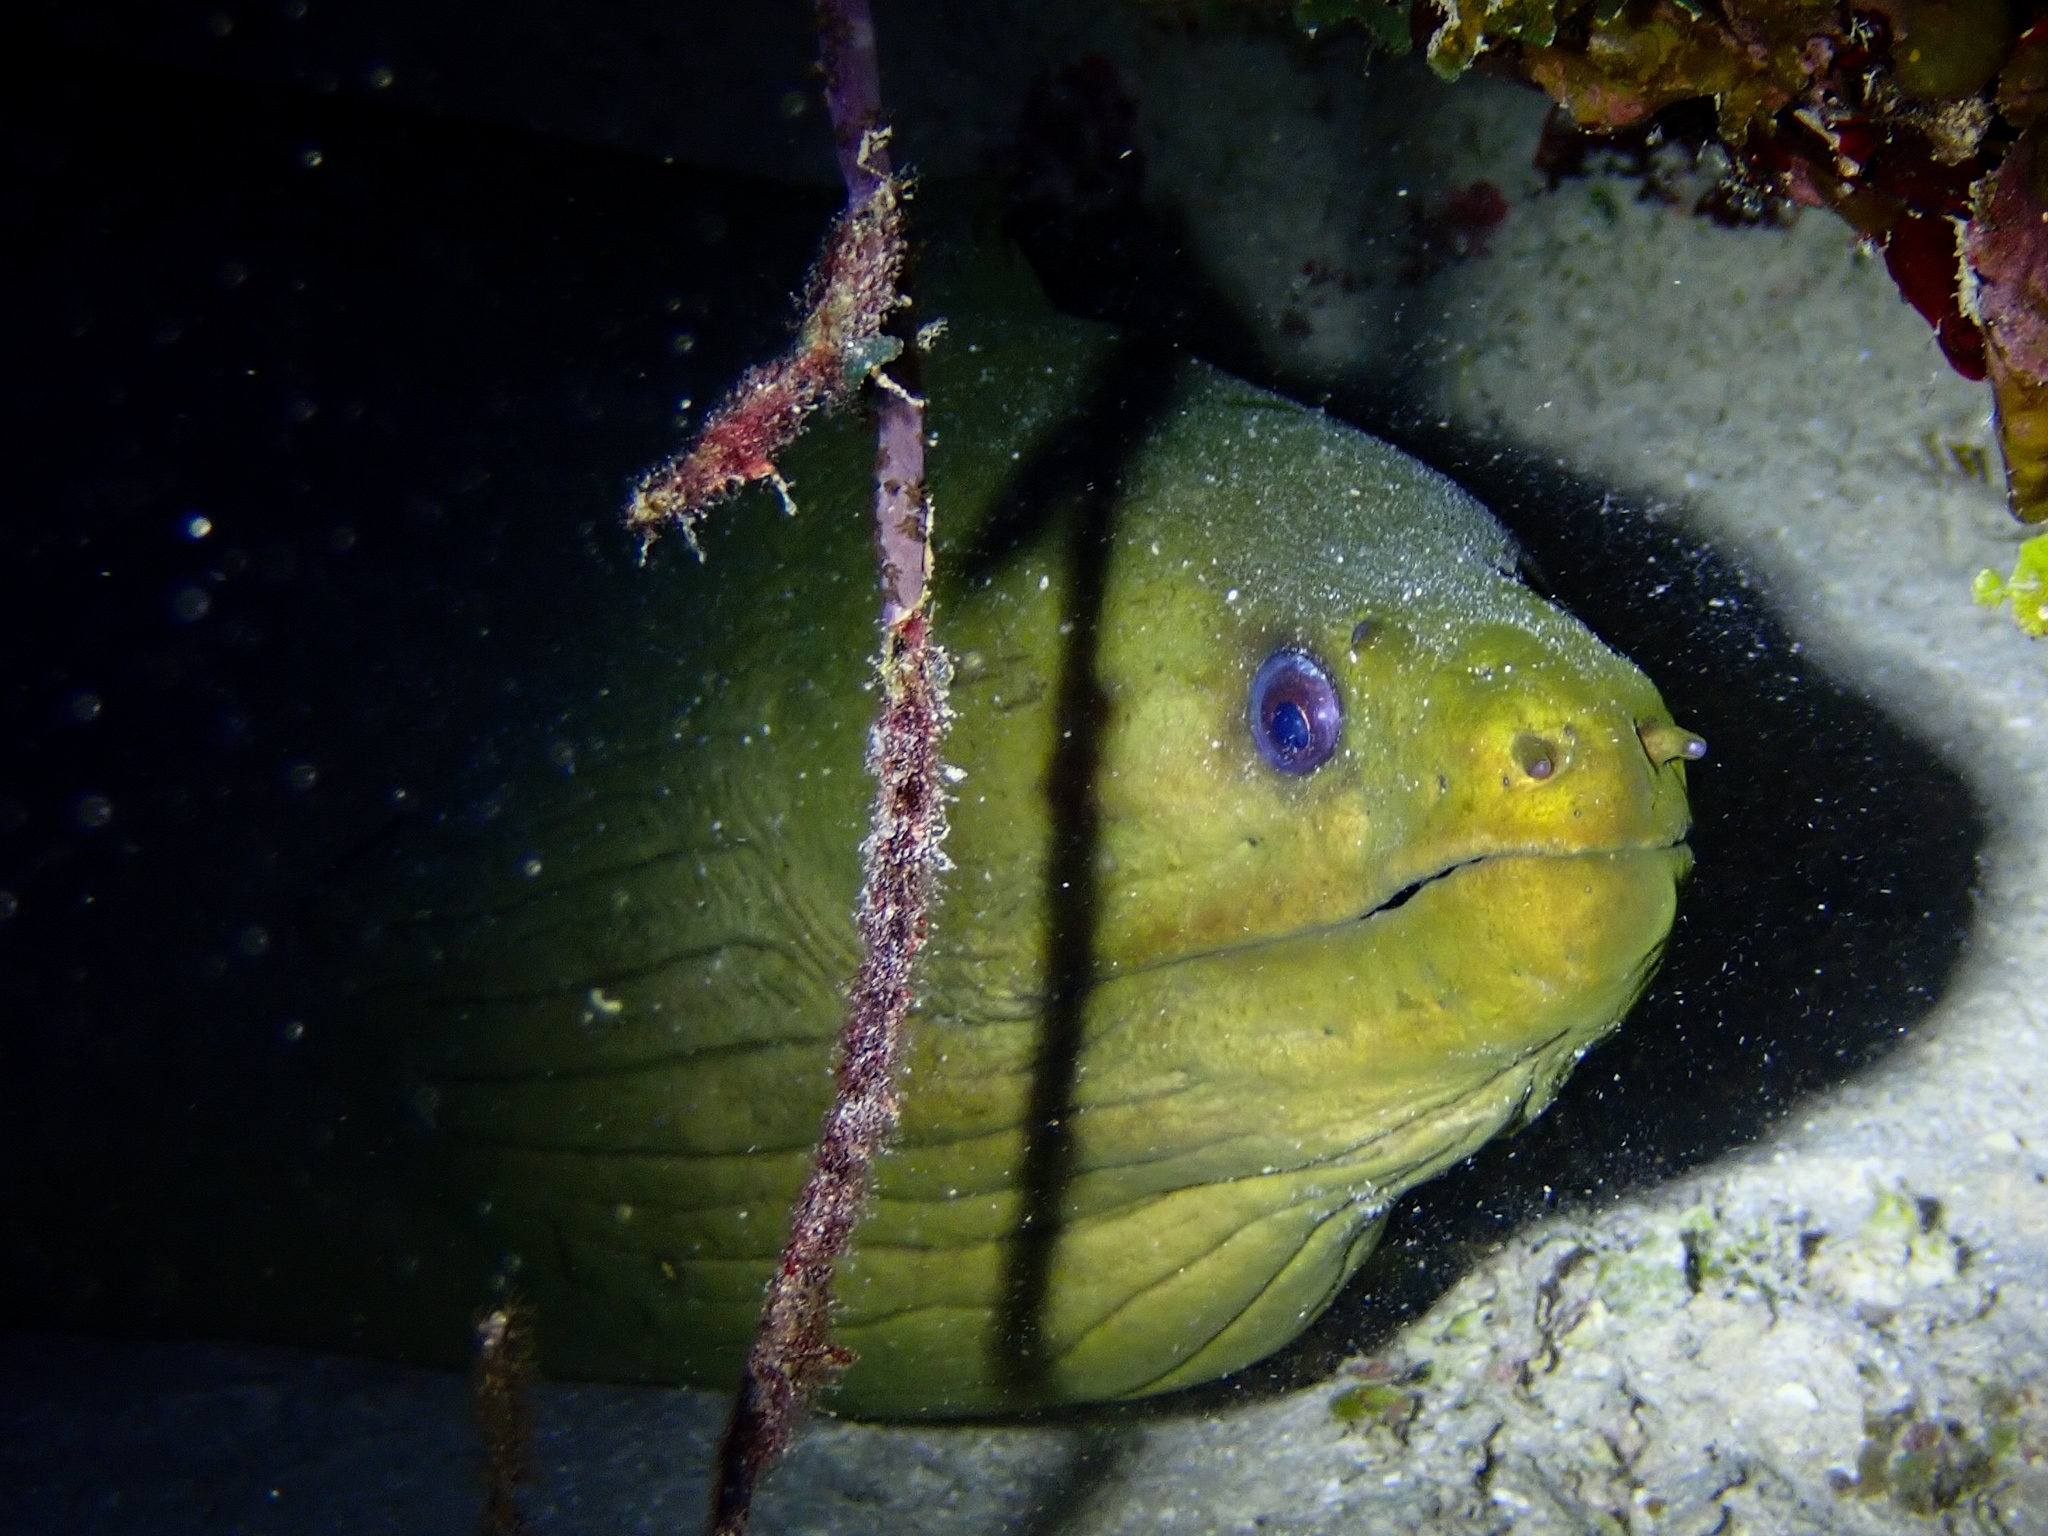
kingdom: Animalia
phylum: Chordata
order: Anguilliformes
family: Muraenidae
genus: Gymnothorax
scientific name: Gymnothorax funebris
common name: Green moray
